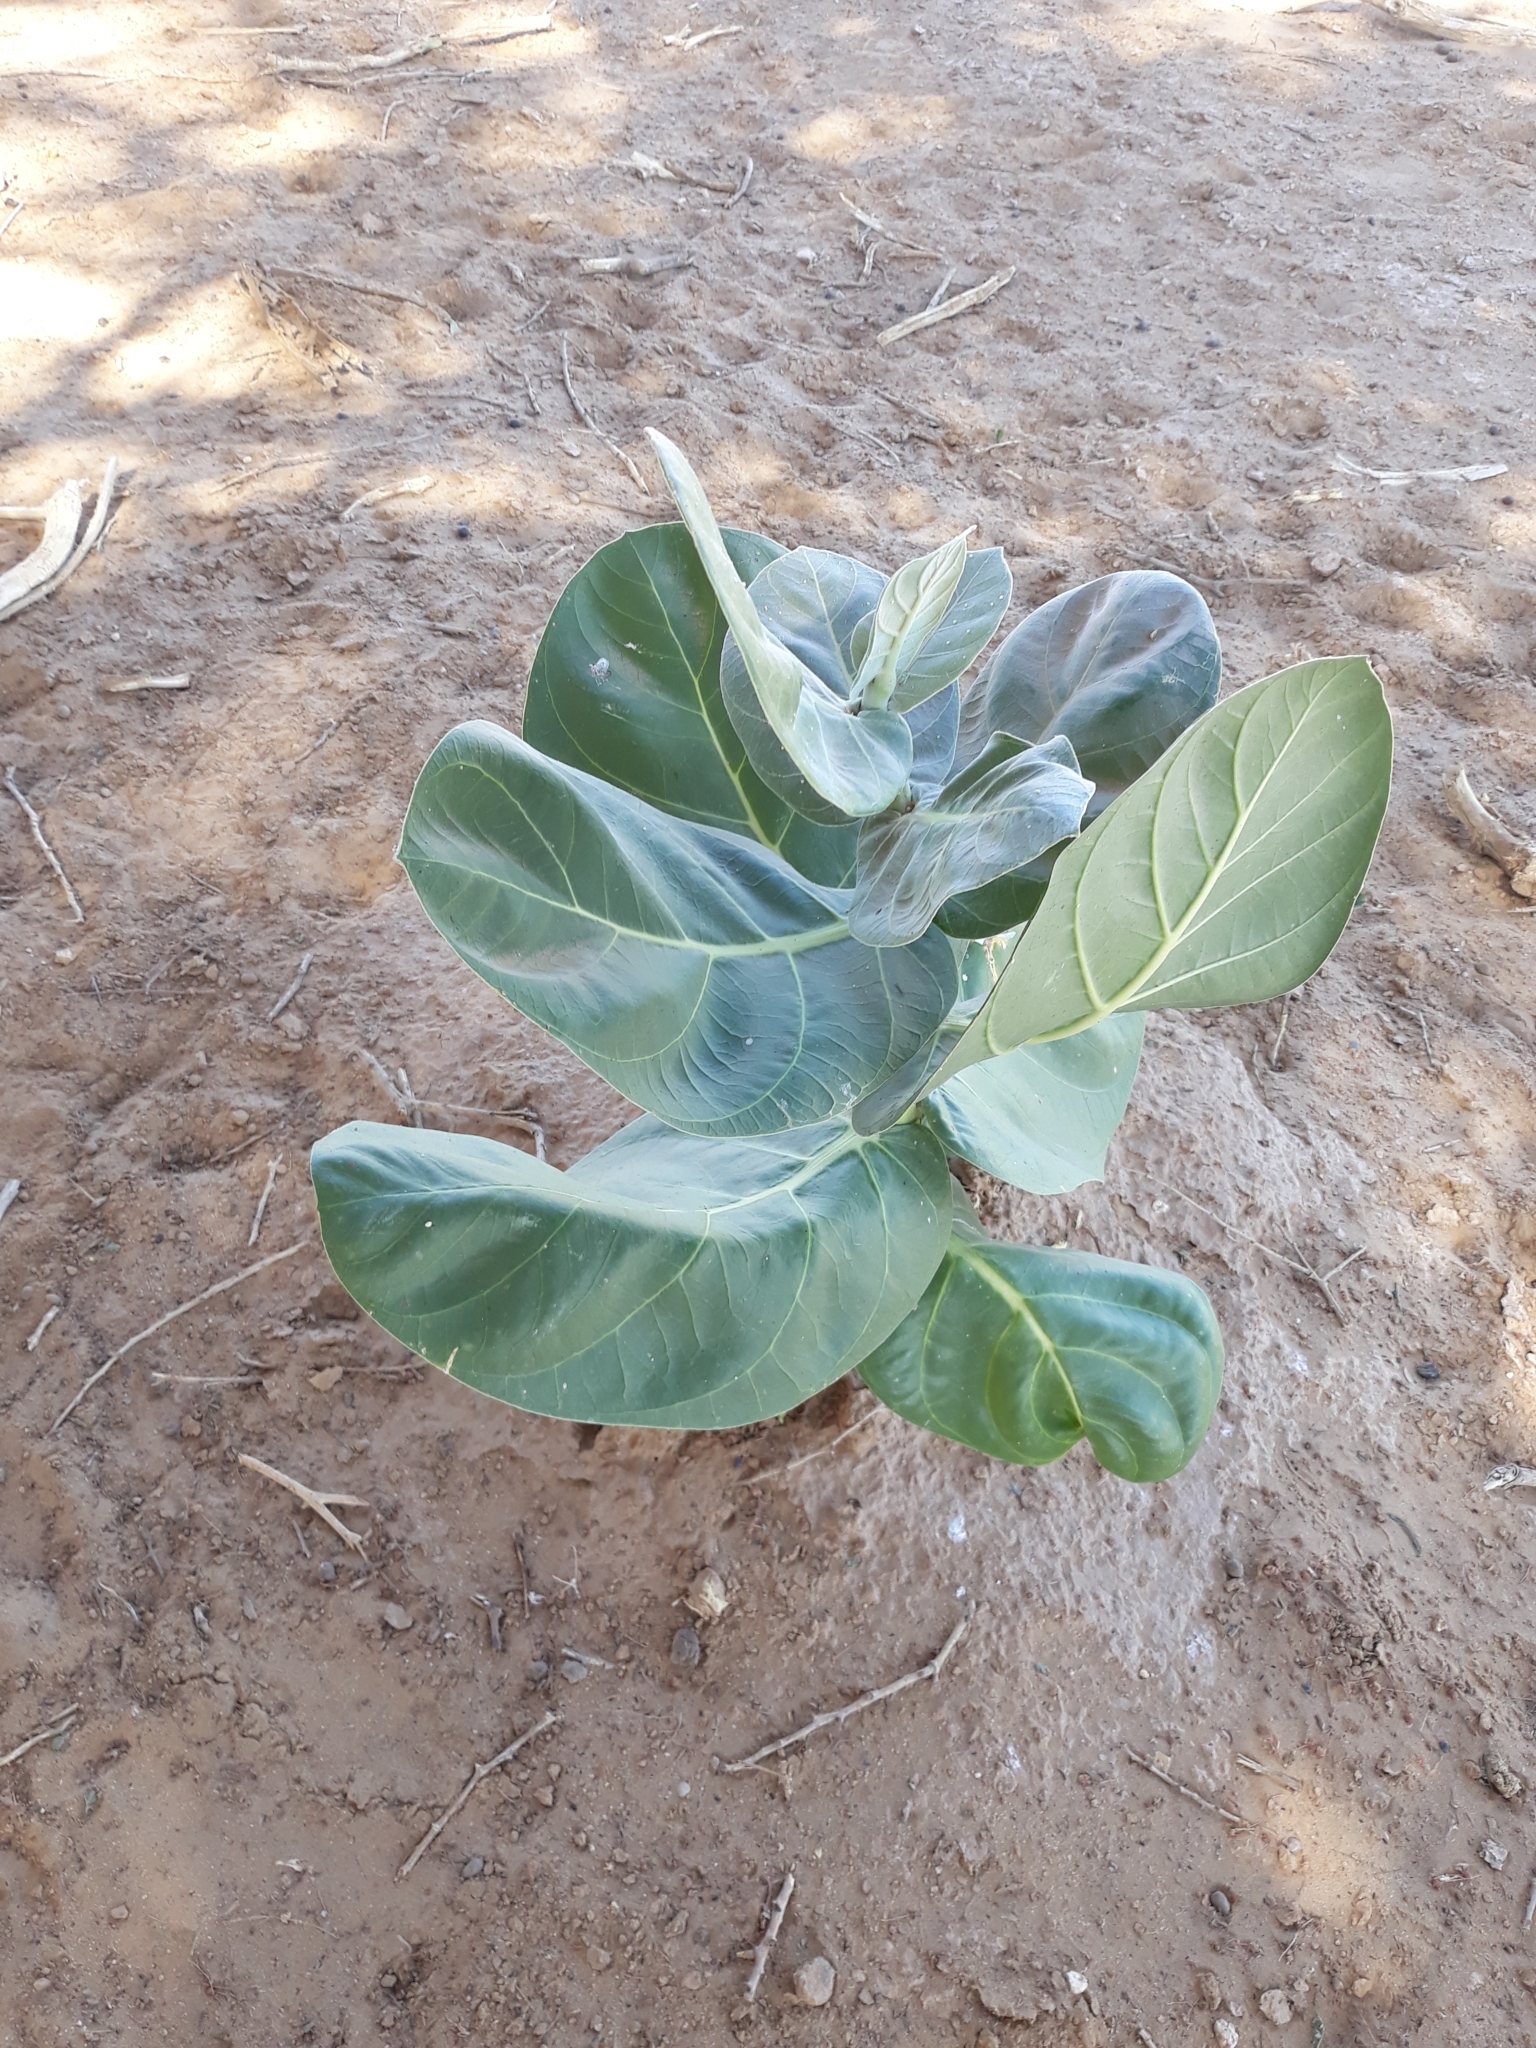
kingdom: Plantae
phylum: Tracheophyta
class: Magnoliopsida
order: Gentianales
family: Apocynaceae
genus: Calotropis
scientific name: Calotropis procera
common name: Roostertree
